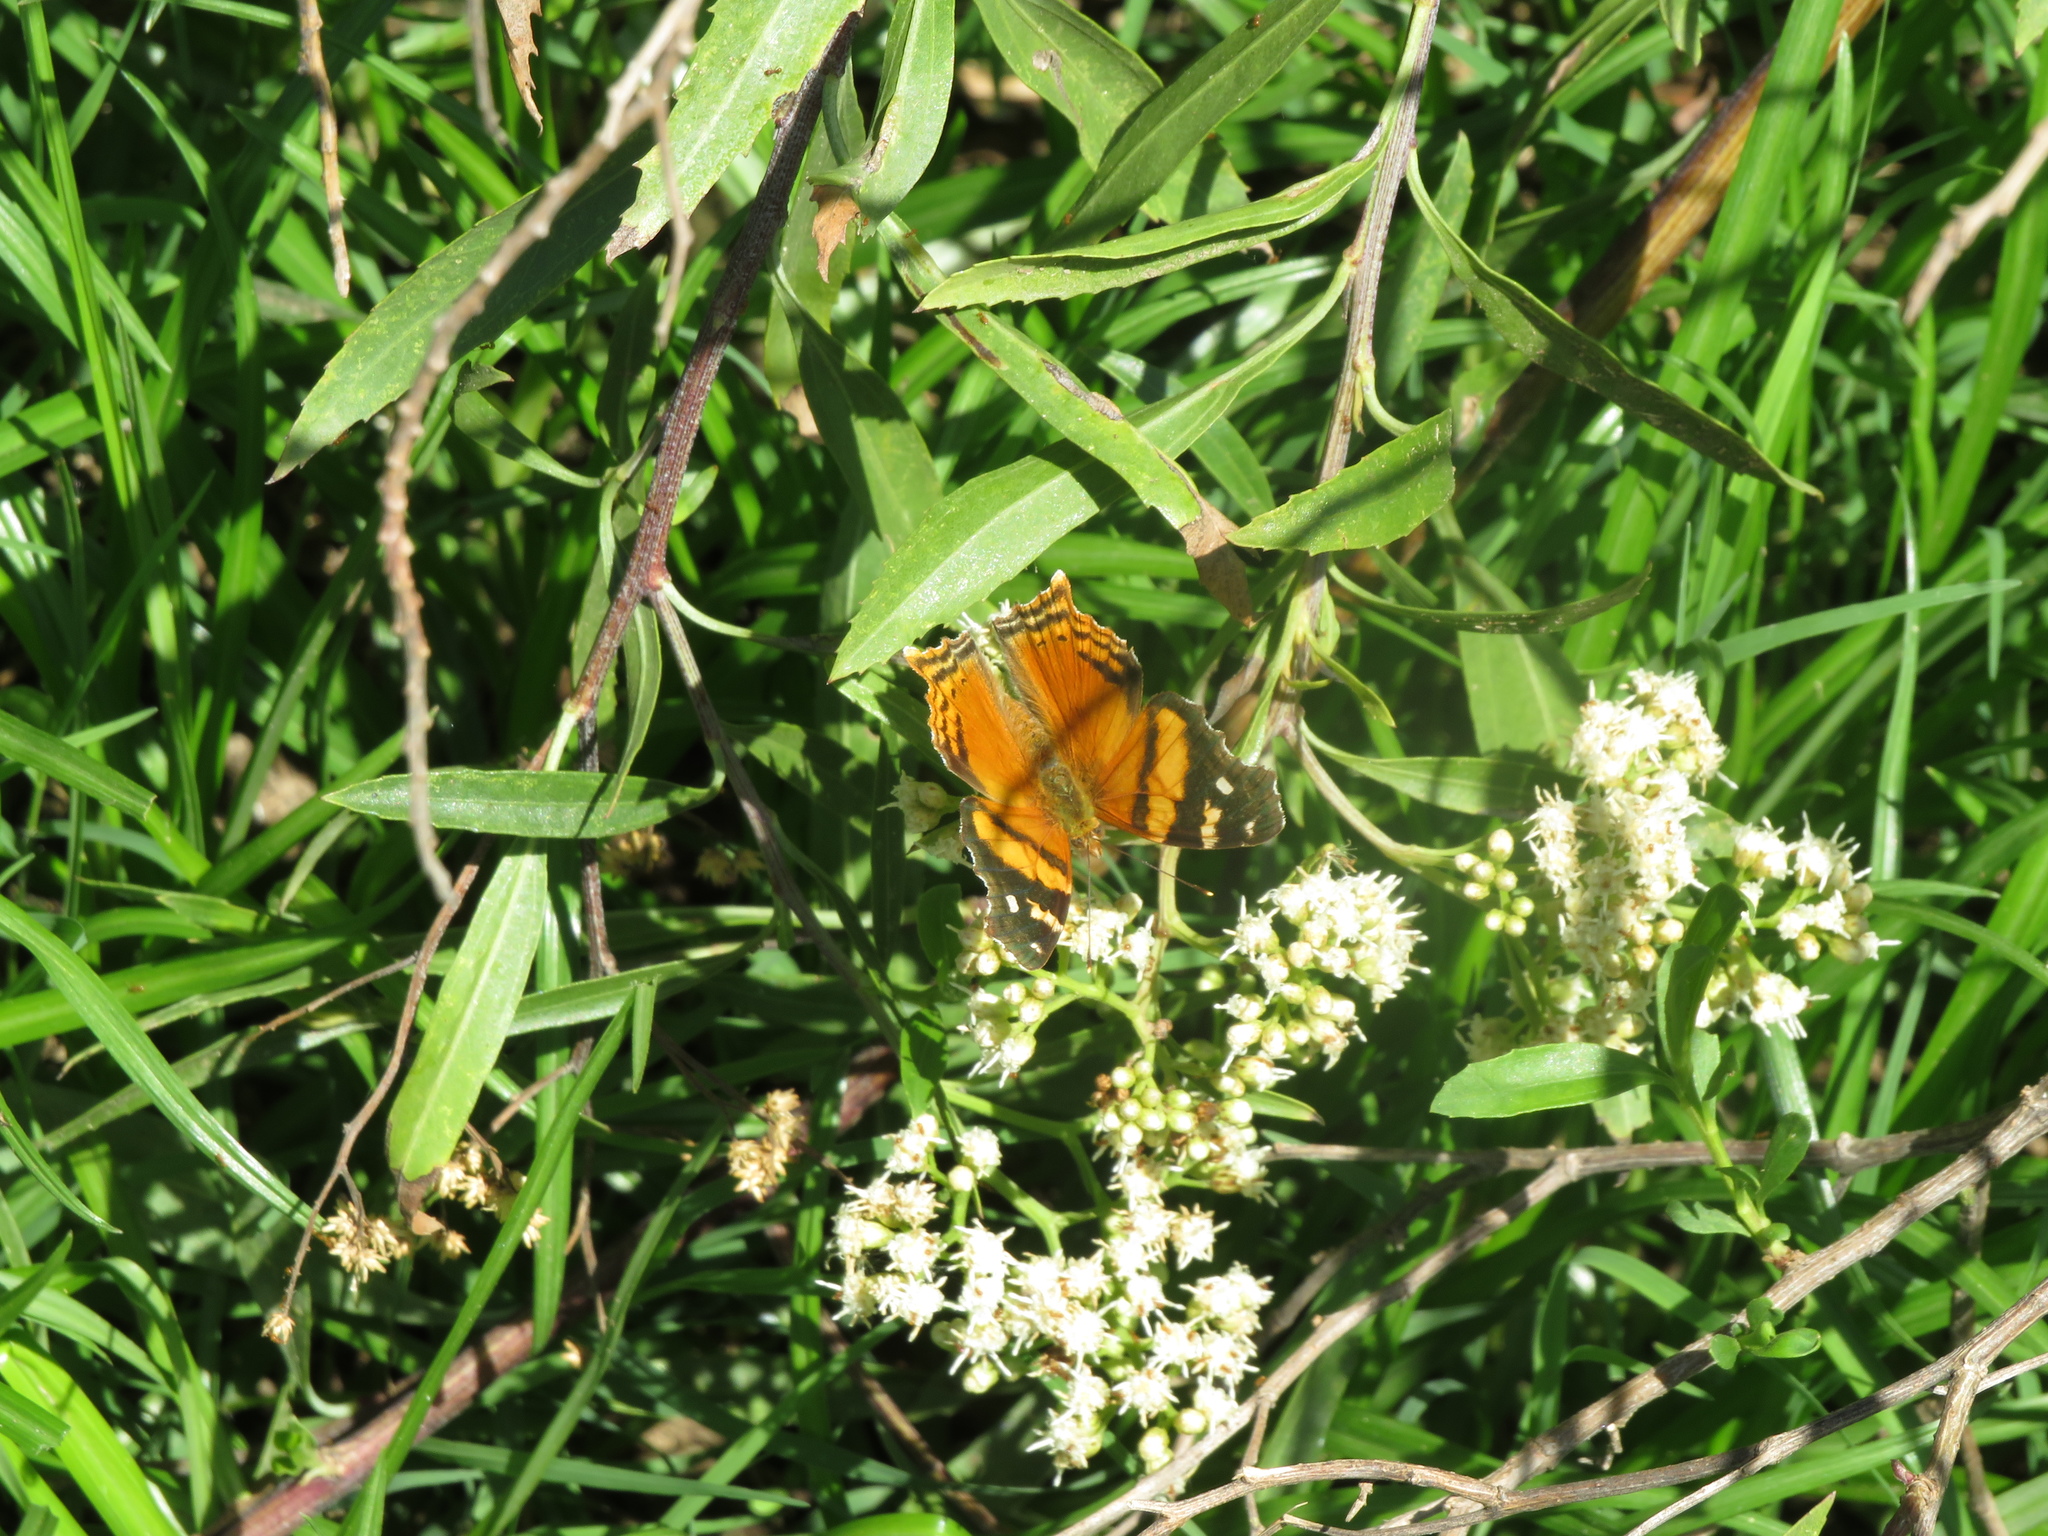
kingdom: Animalia
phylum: Arthropoda
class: Insecta
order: Lepidoptera
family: Nymphalidae
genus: Hypanartia
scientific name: Hypanartia bella
